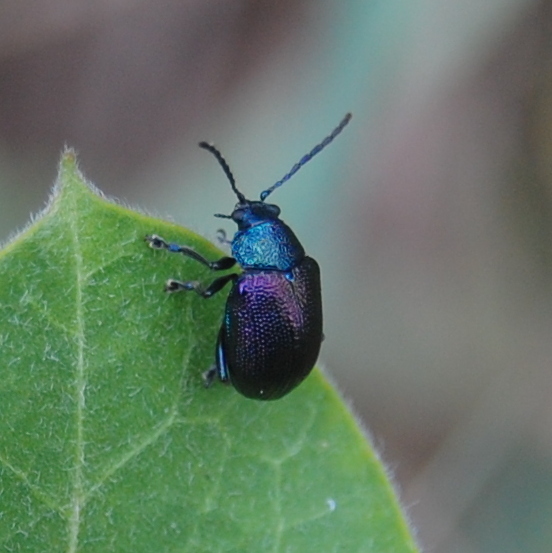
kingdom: Animalia
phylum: Arthropoda
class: Insecta
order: Coleoptera
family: Chrysomelidae
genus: Freudeita
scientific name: Freudeita
